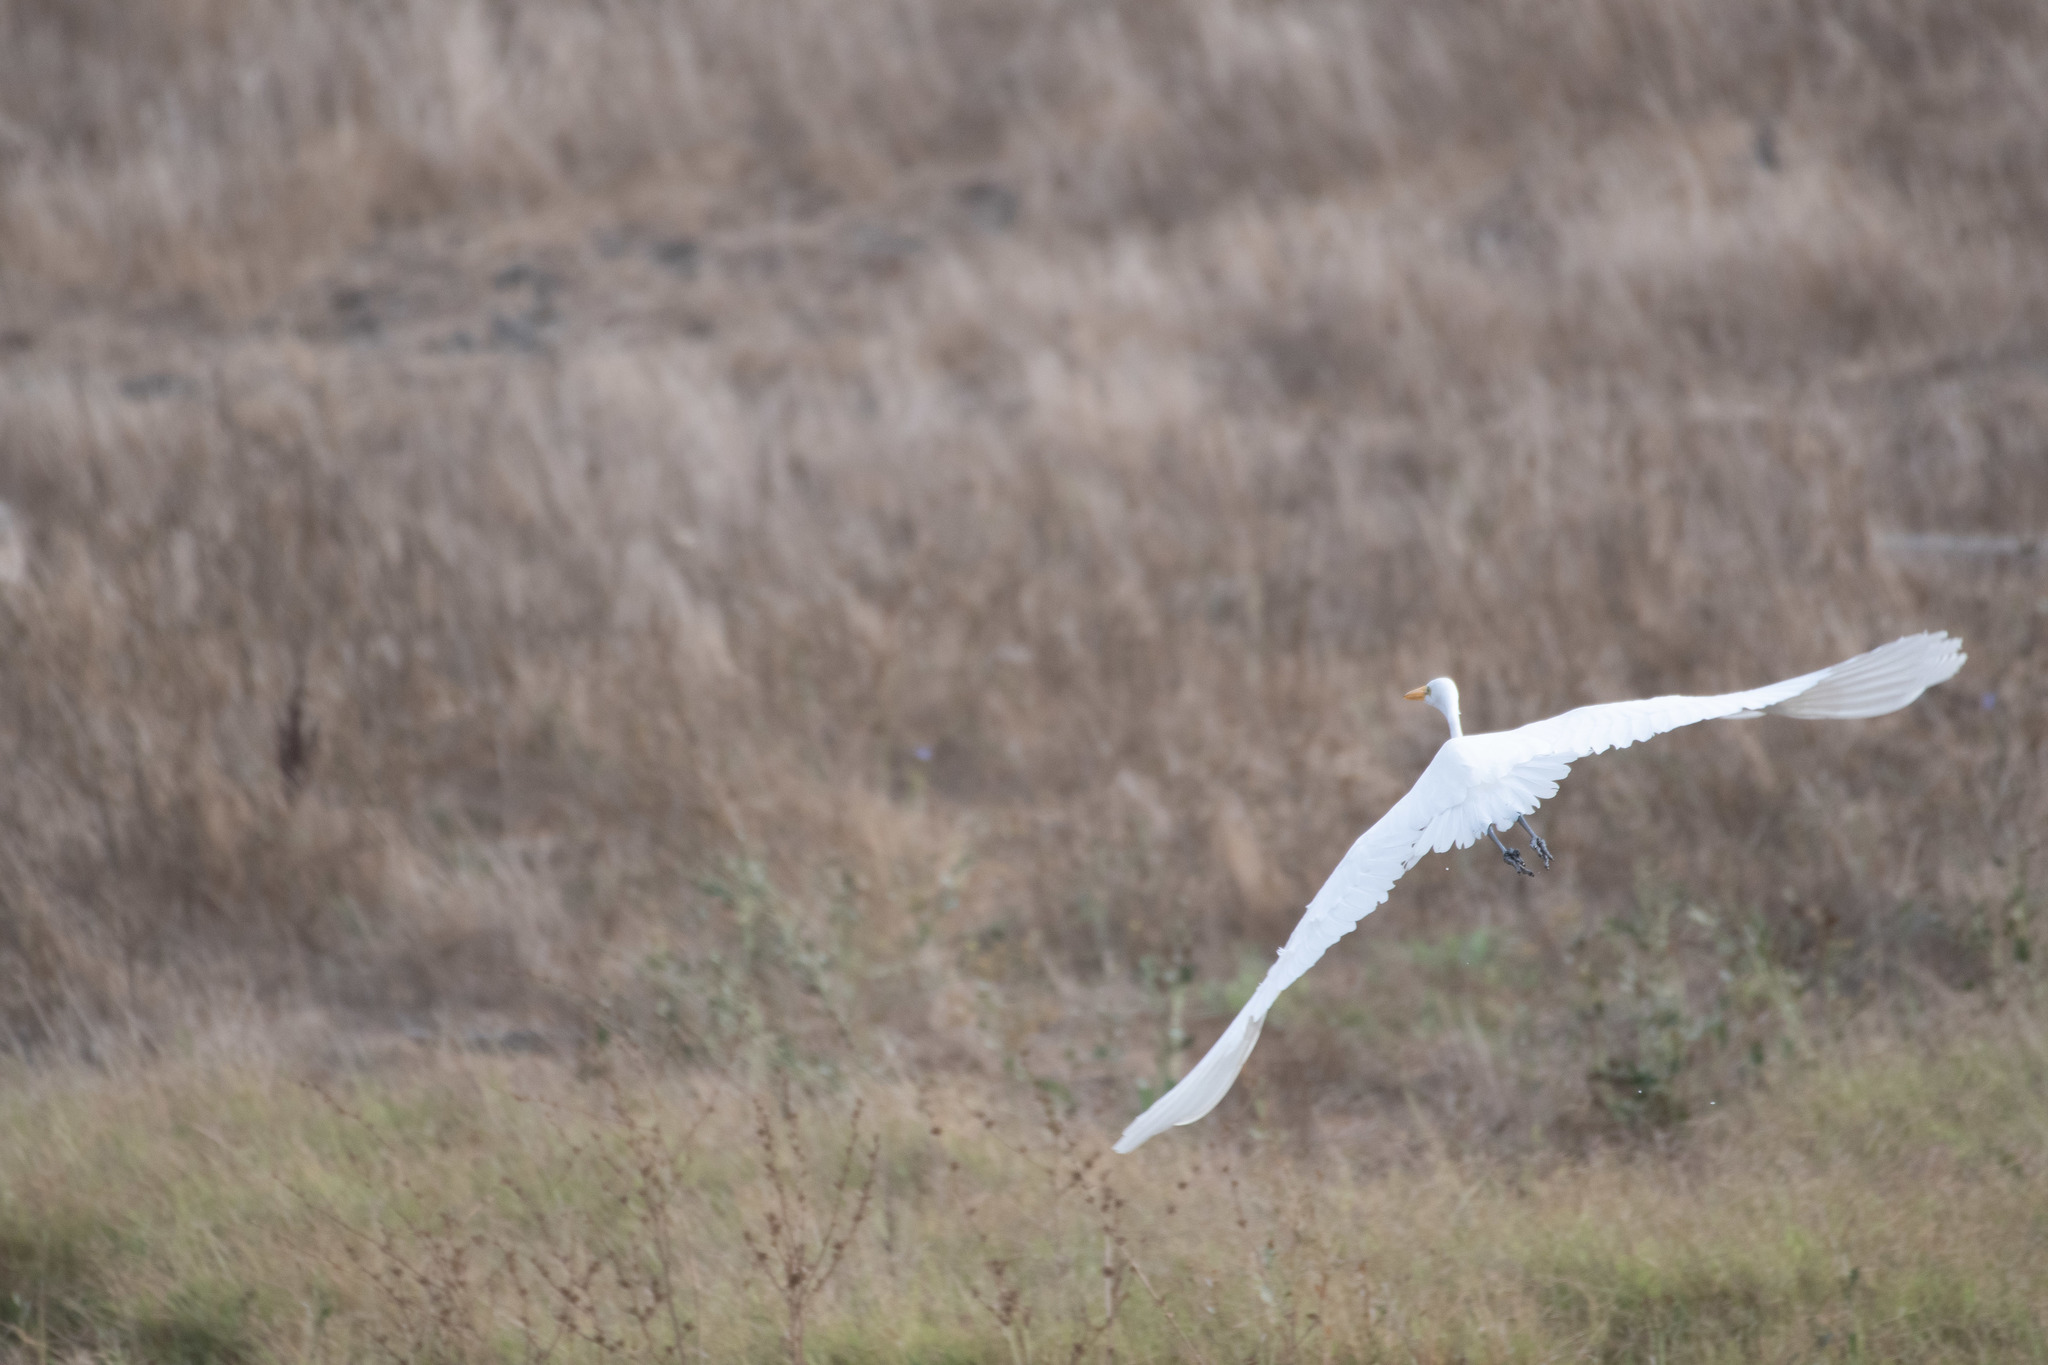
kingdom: Animalia
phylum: Chordata
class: Aves
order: Pelecaniformes
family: Ardeidae
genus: Ardea
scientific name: Ardea alba
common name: Great egret
